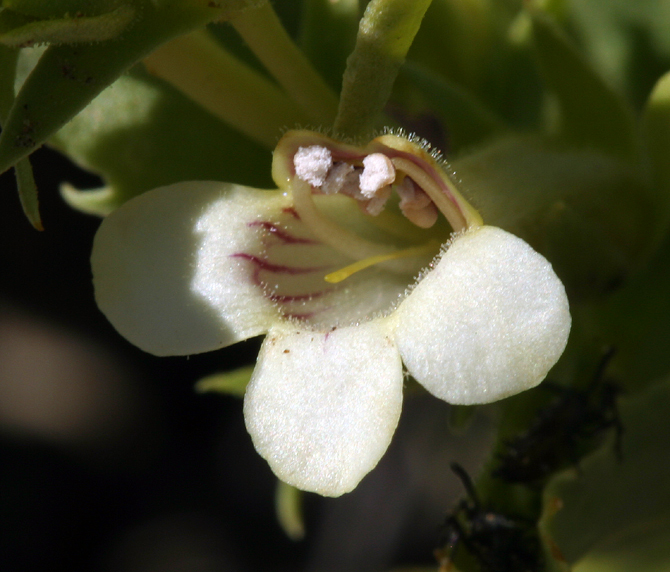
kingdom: Plantae
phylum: Tracheophyta
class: Magnoliopsida
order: Lamiales
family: Plantaginaceae
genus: Penstemon
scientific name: Penstemon deustus
